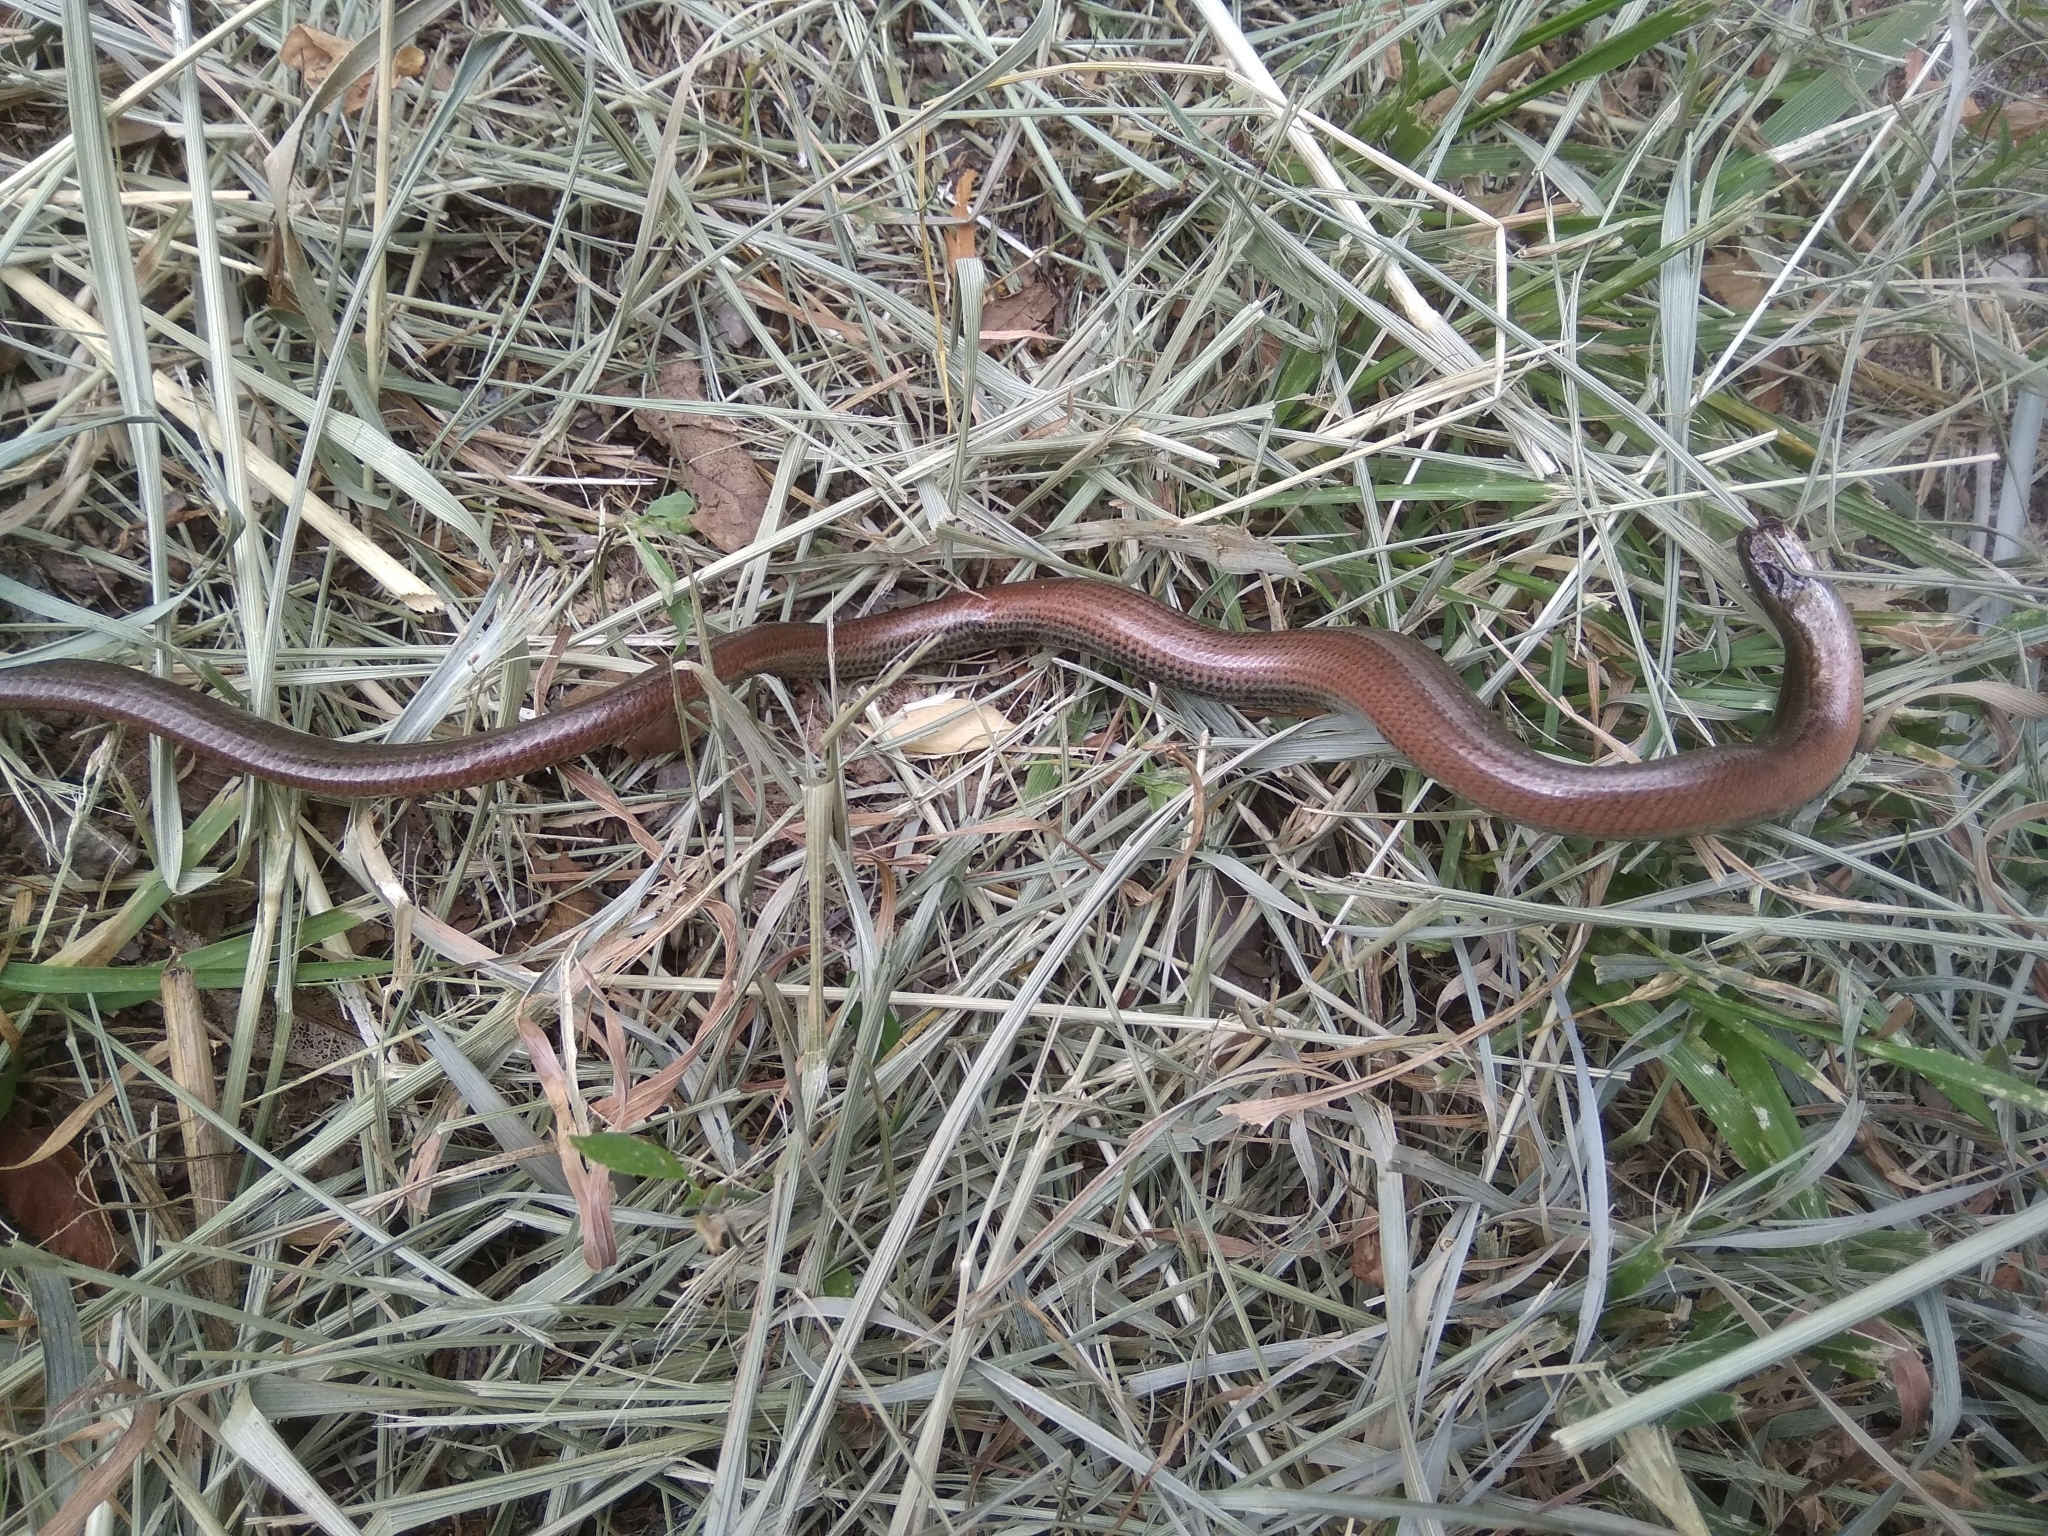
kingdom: Animalia
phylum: Chordata
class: Squamata
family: Anguidae
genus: Anguis
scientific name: Anguis fragilis
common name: Slow worm
